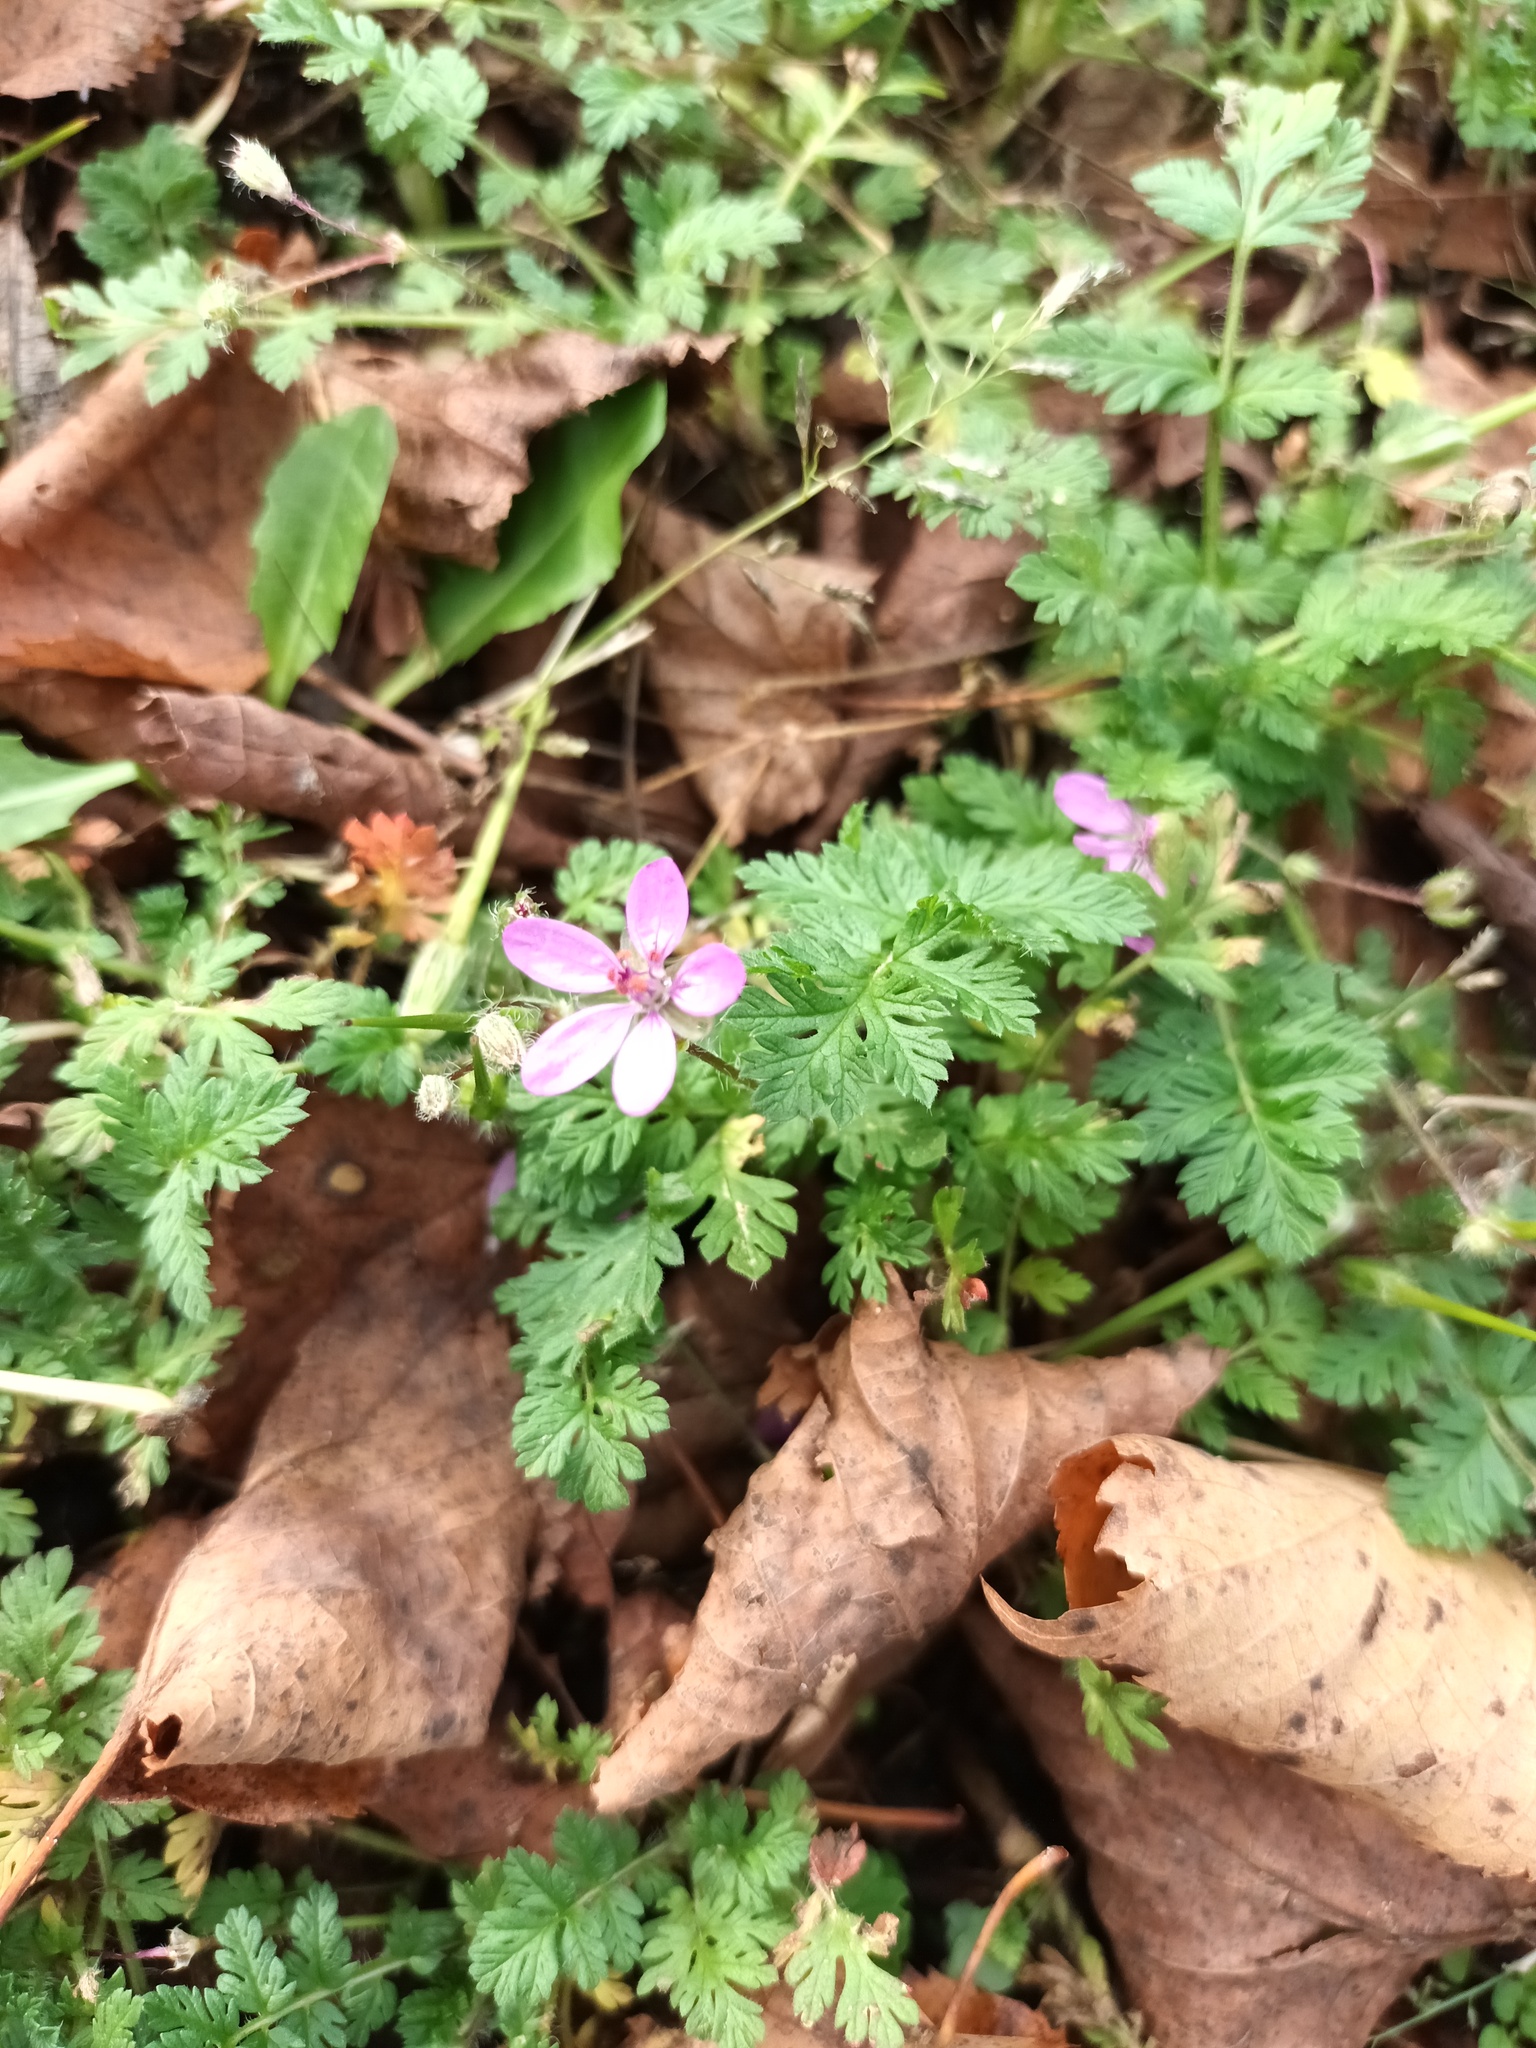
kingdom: Plantae
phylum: Tracheophyta
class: Magnoliopsida
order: Geraniales
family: Geraniaceae
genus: Erodium
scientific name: Erodium cicutarium
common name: Common stork's-bill
